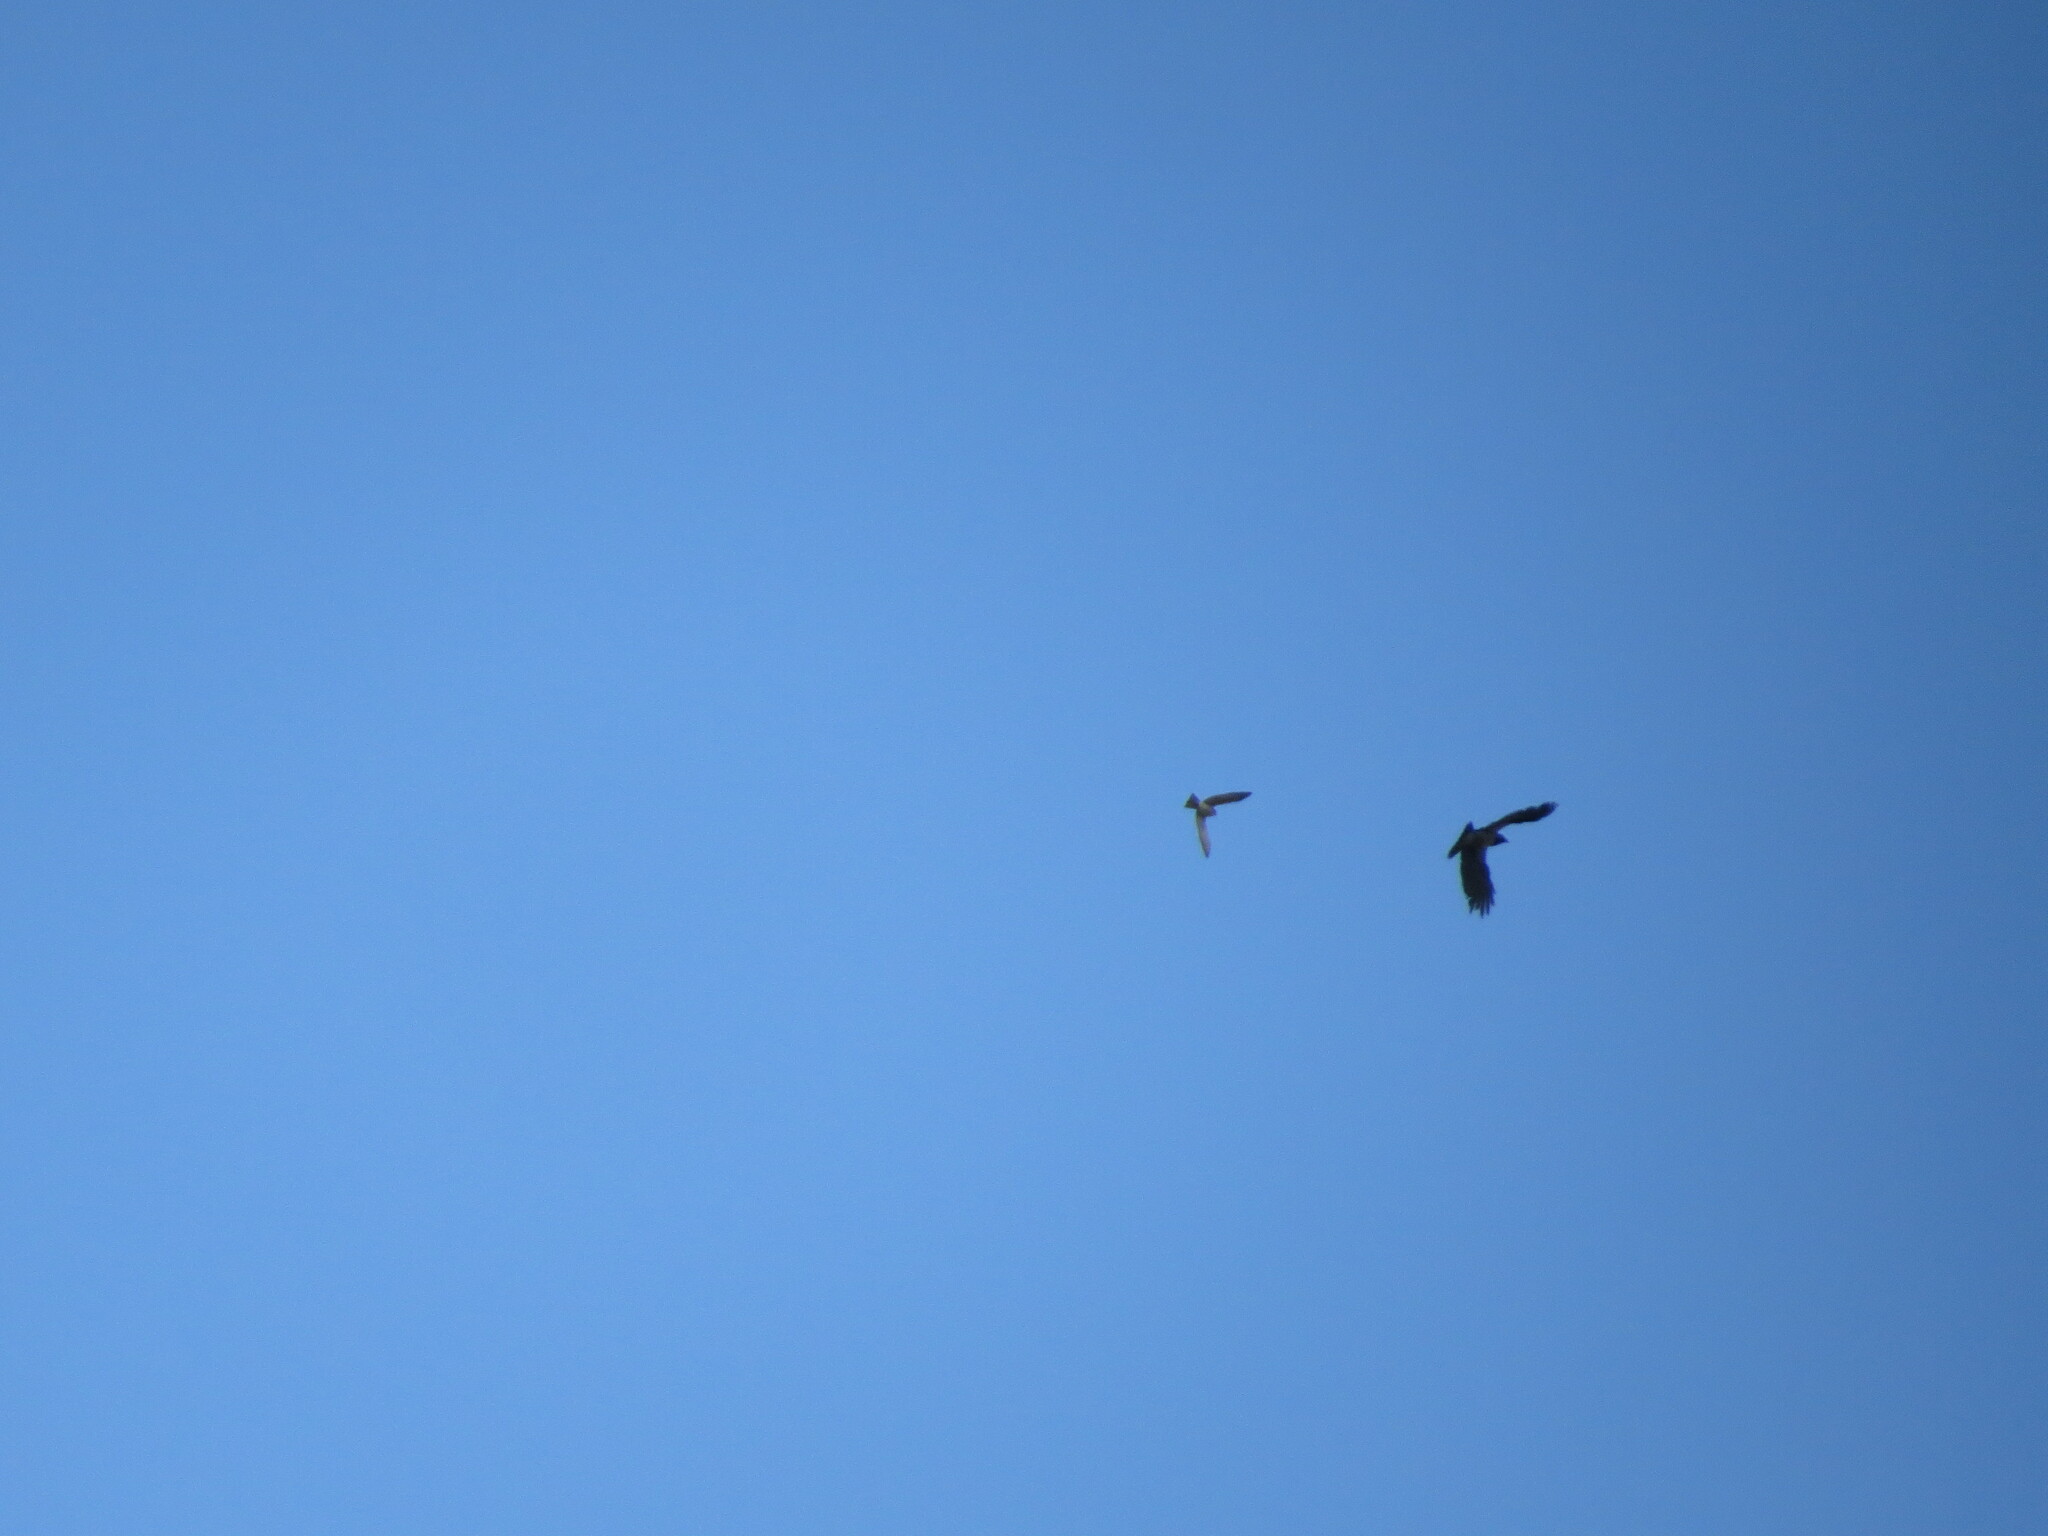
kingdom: Animalia
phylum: Chordata
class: Aves
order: Accipitriformes
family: Accipitridae
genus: Accipiter
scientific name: Accipiter nisus
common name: Eurasian sparrowhawk
